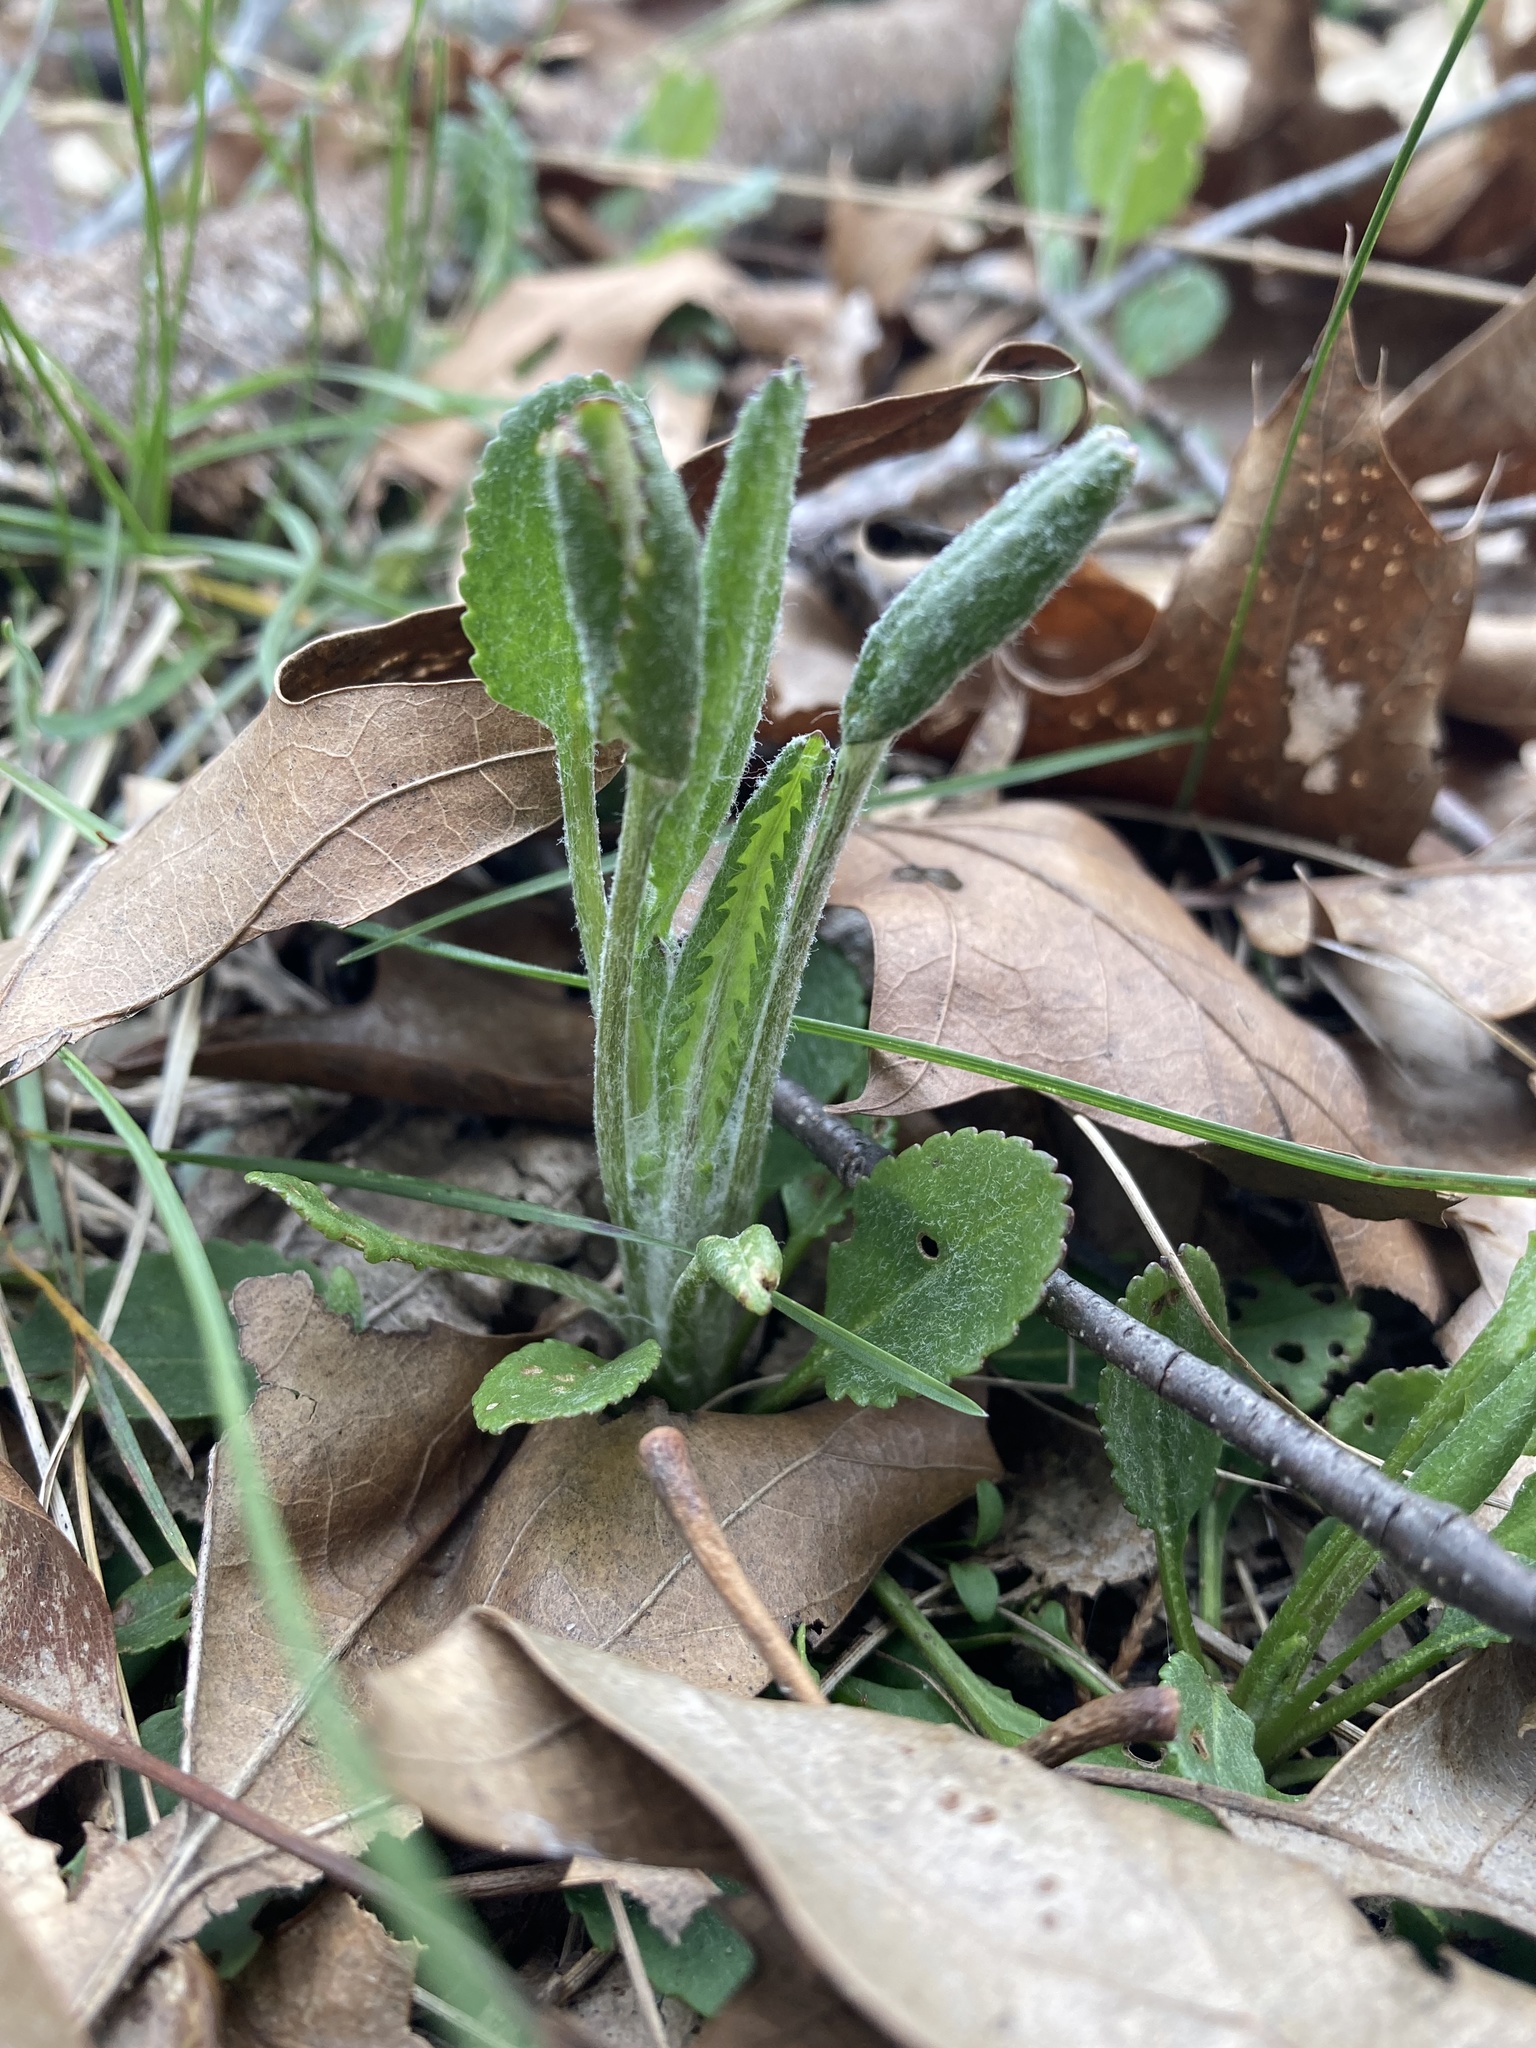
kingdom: Plantae
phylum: Tracheophyta
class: Magnoliopsida
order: Asterales
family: Asteraceae
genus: Packera
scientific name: Packera paupercula
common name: Balsam groundsel
